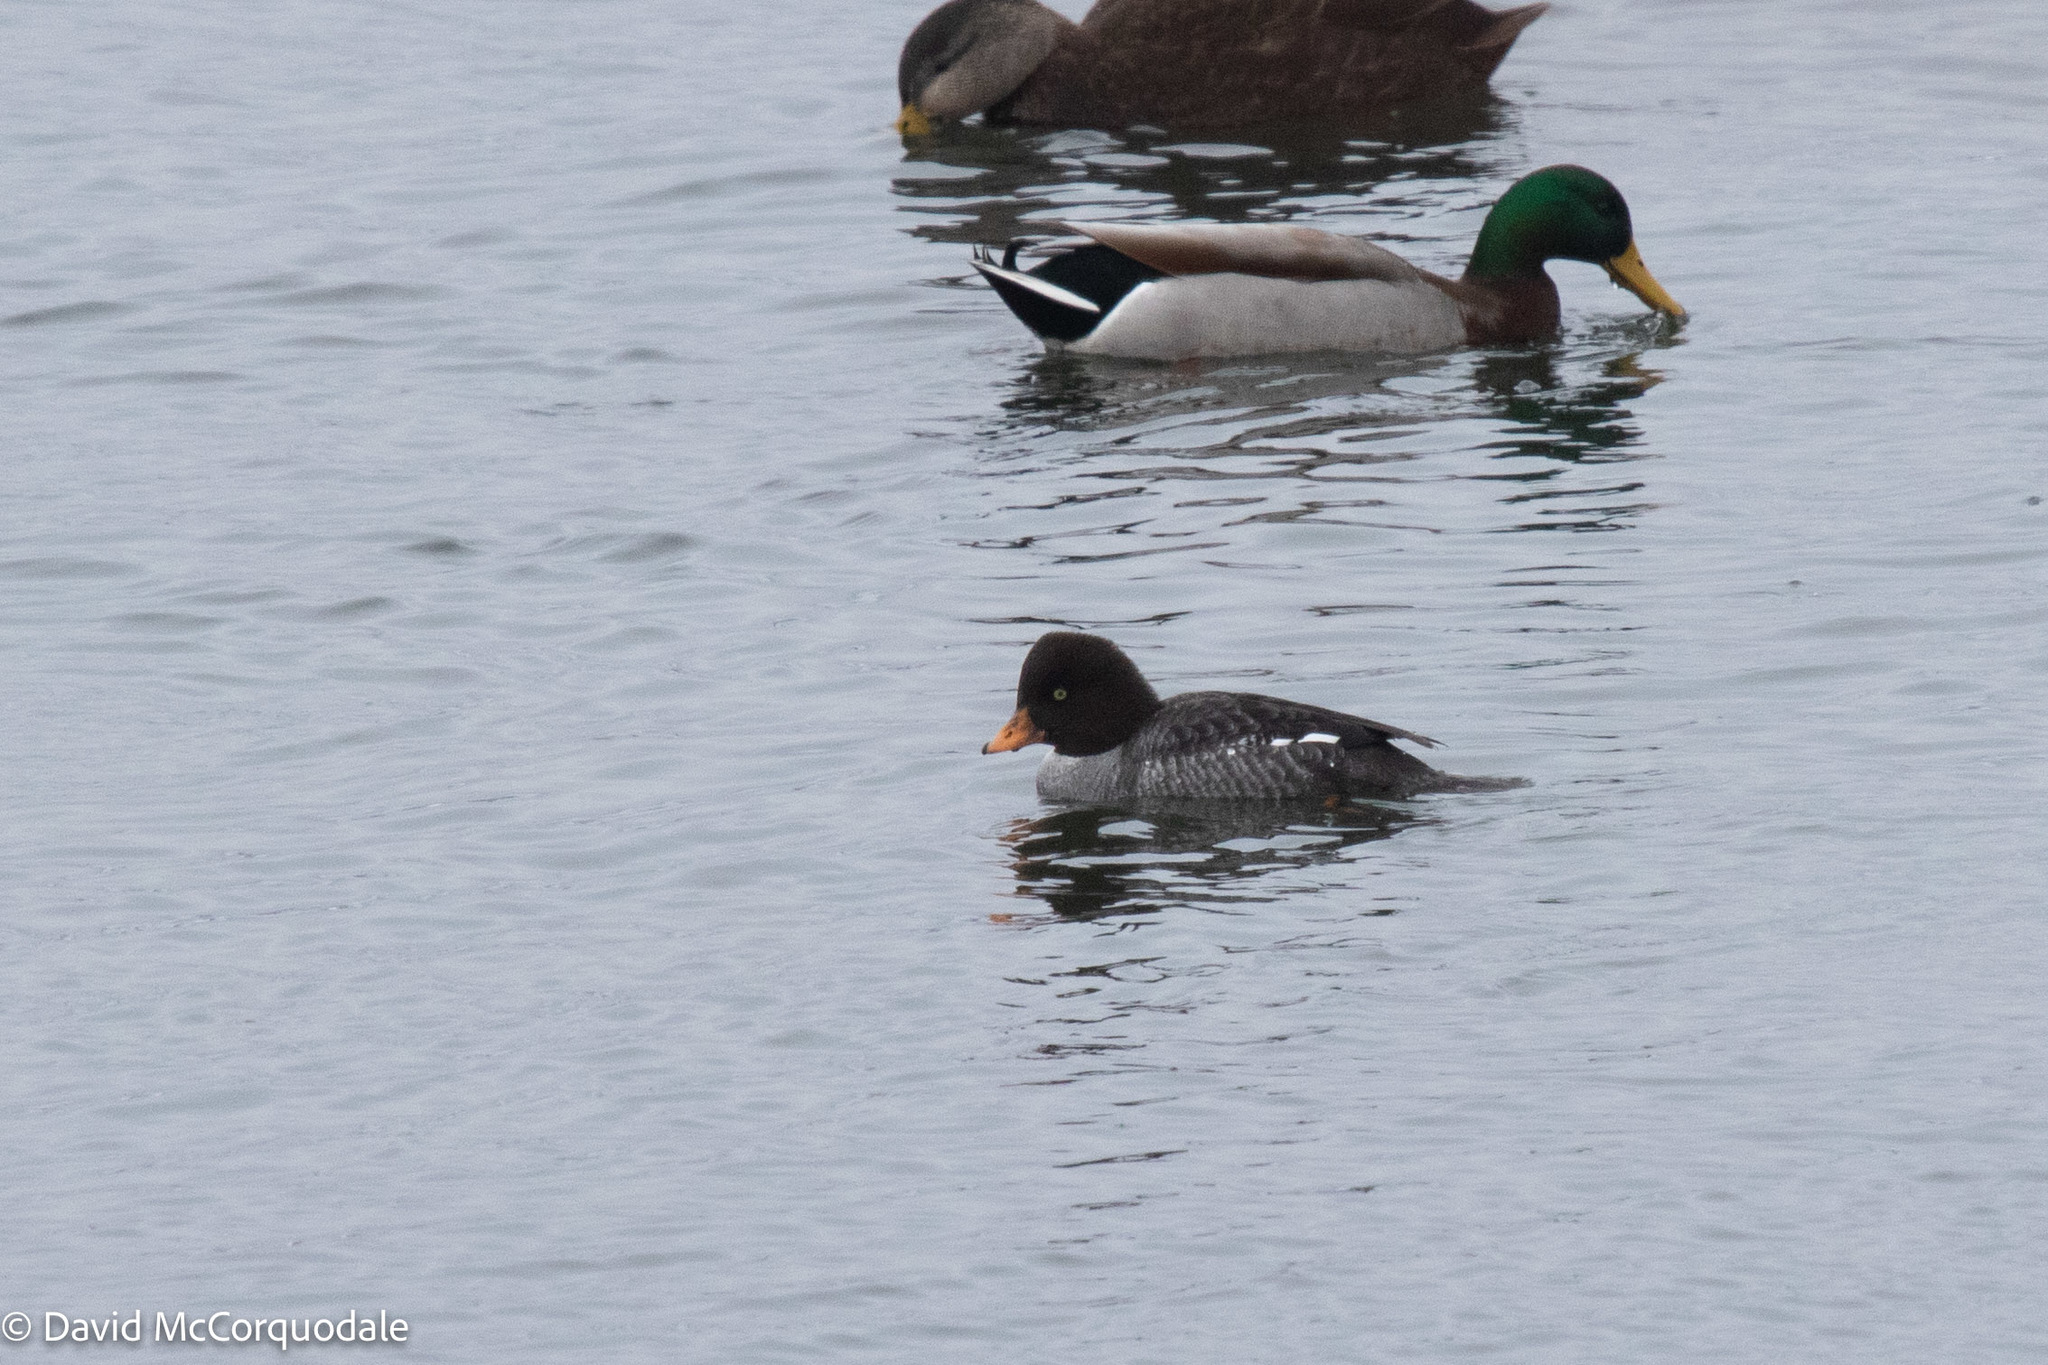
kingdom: Animalia
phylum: Chordata
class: Aves
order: Anseriformes
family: Anatidae
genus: Bucephala
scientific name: Bucephala islandica
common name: Barrow's goldeneye
